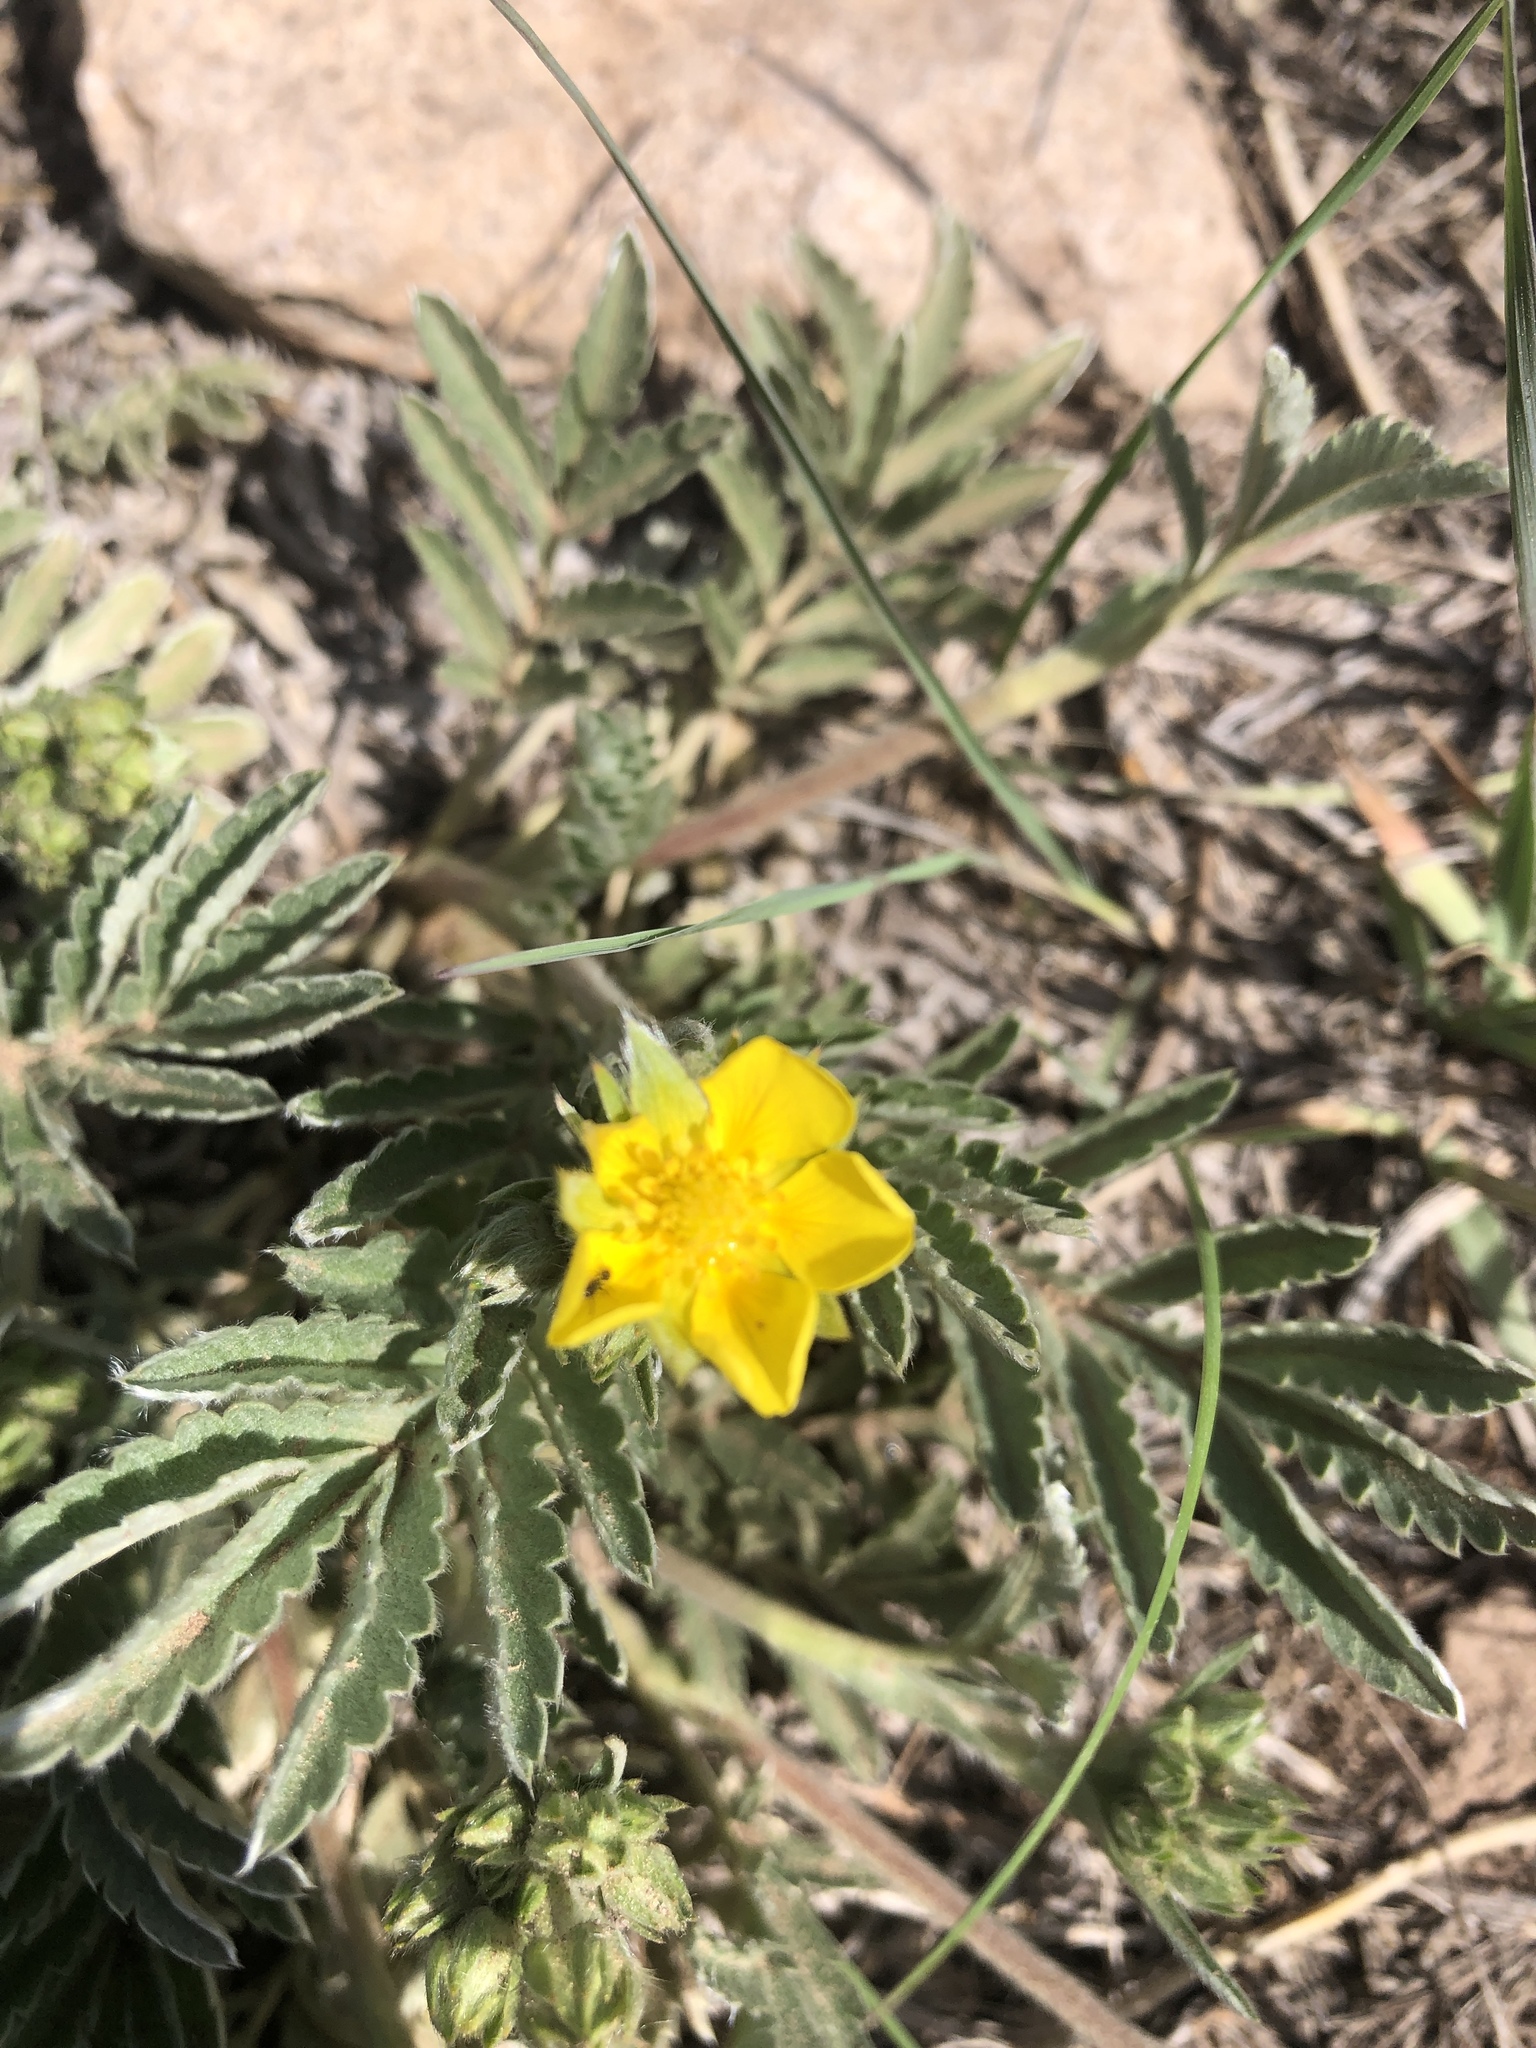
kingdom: Plantae
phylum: Tracheophyta
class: Magnoliopsida
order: Rosales
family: Rosaceae
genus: Potentilla
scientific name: Potentilla hippiana
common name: Woolly cinquefoil
